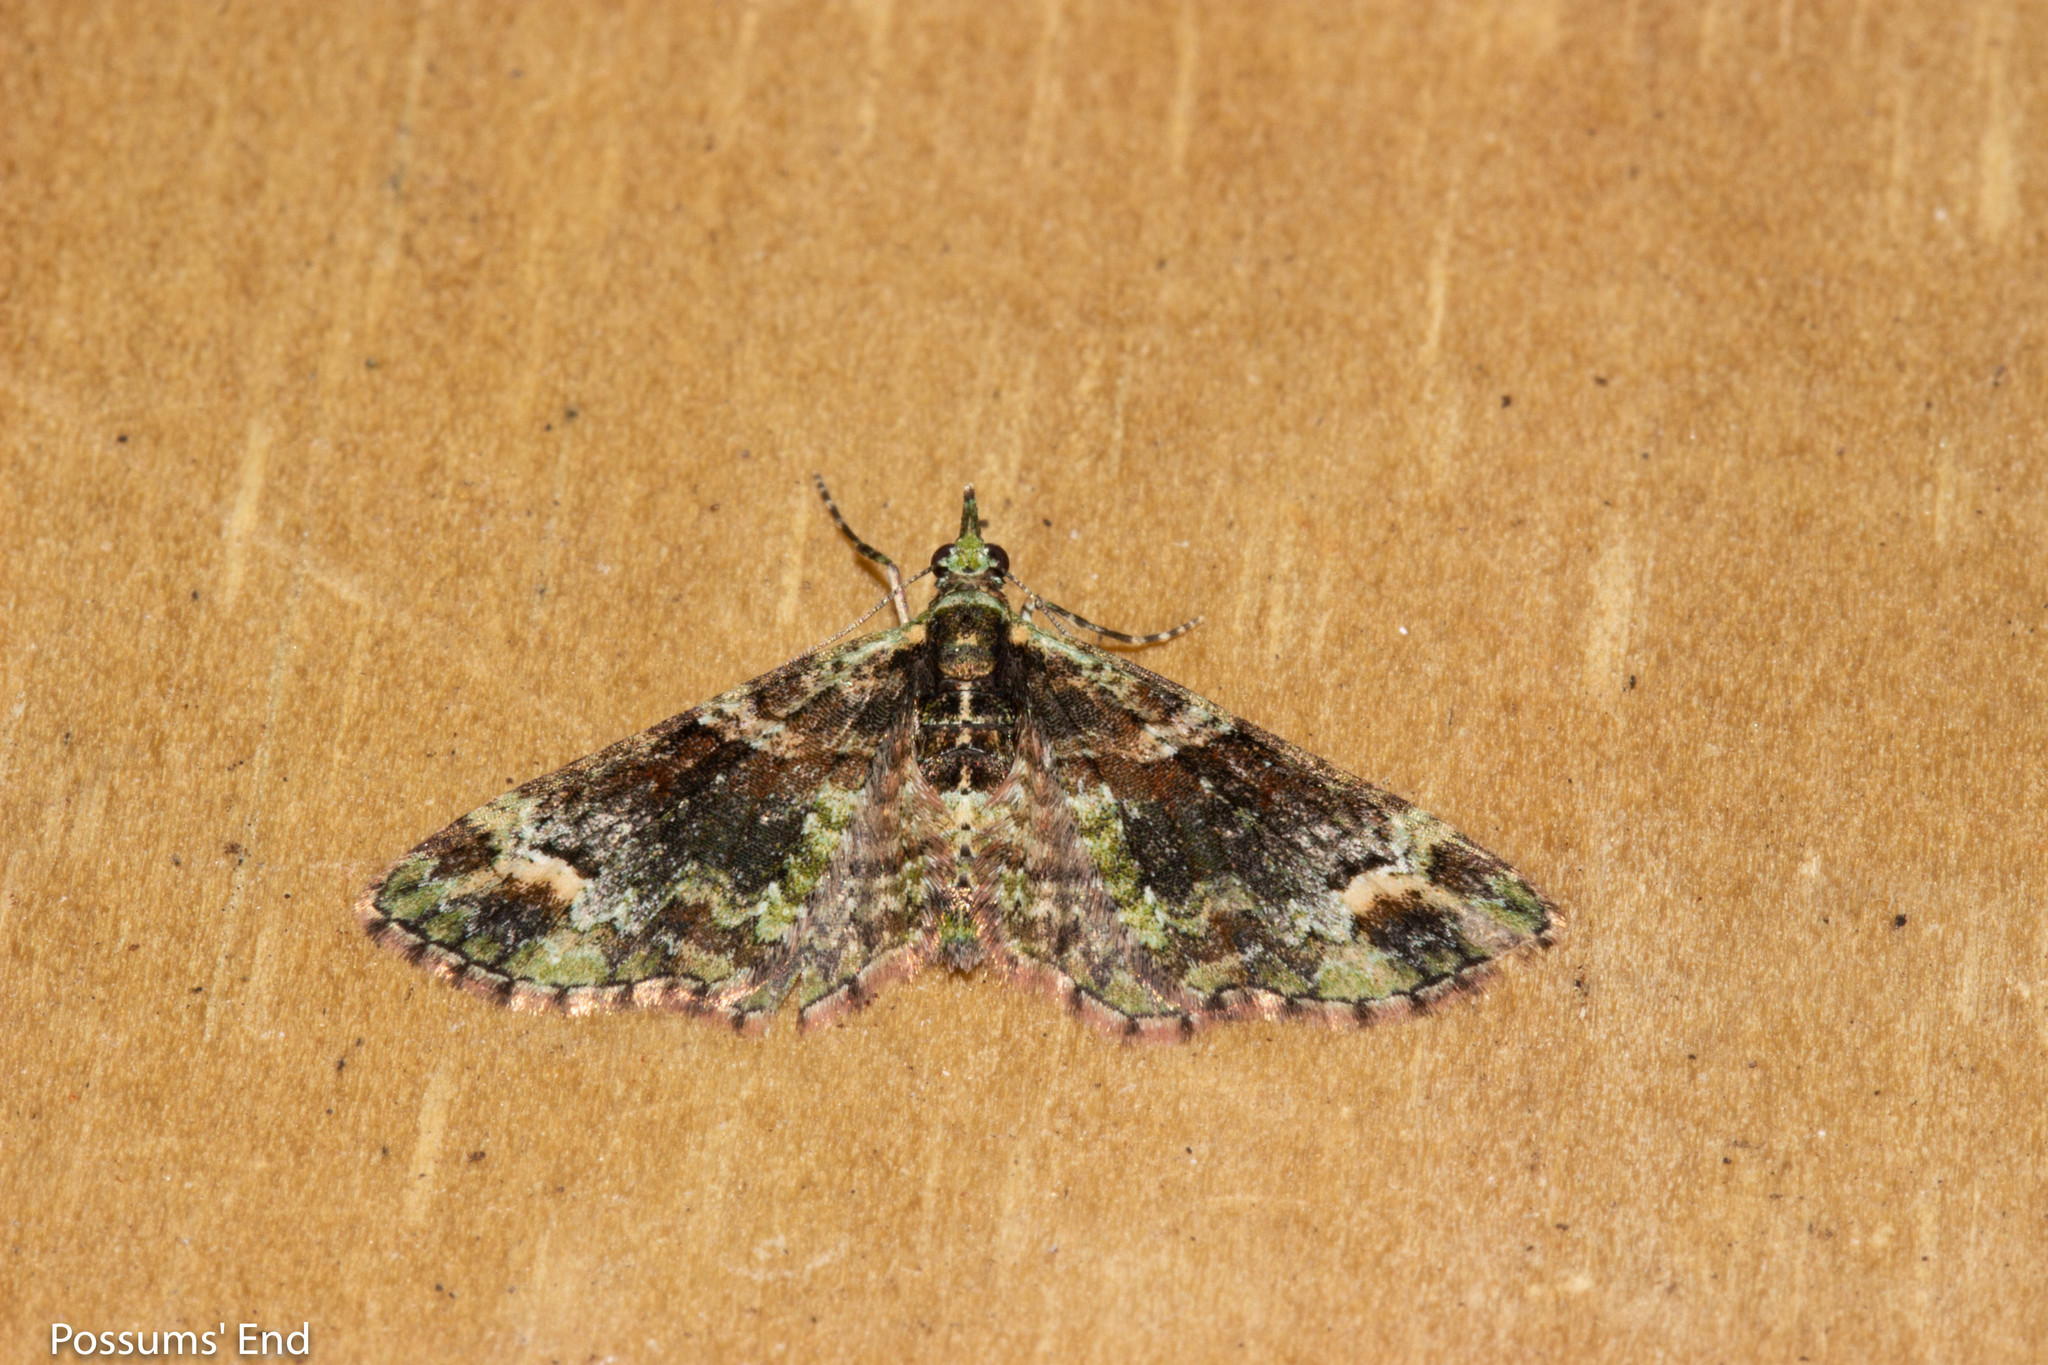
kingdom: Animalia
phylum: Arthropoda
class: Insecta
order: Lepidoptera
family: Geometridae
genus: Idaea
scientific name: Idaea mutanda
